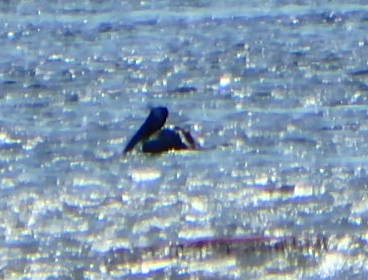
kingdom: Animalia
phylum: Chordata
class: Aves
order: Pelecaniformes
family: Pelecanidae
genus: Pelecanus
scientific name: Pelecanus occidentalis
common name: Brown pelican
